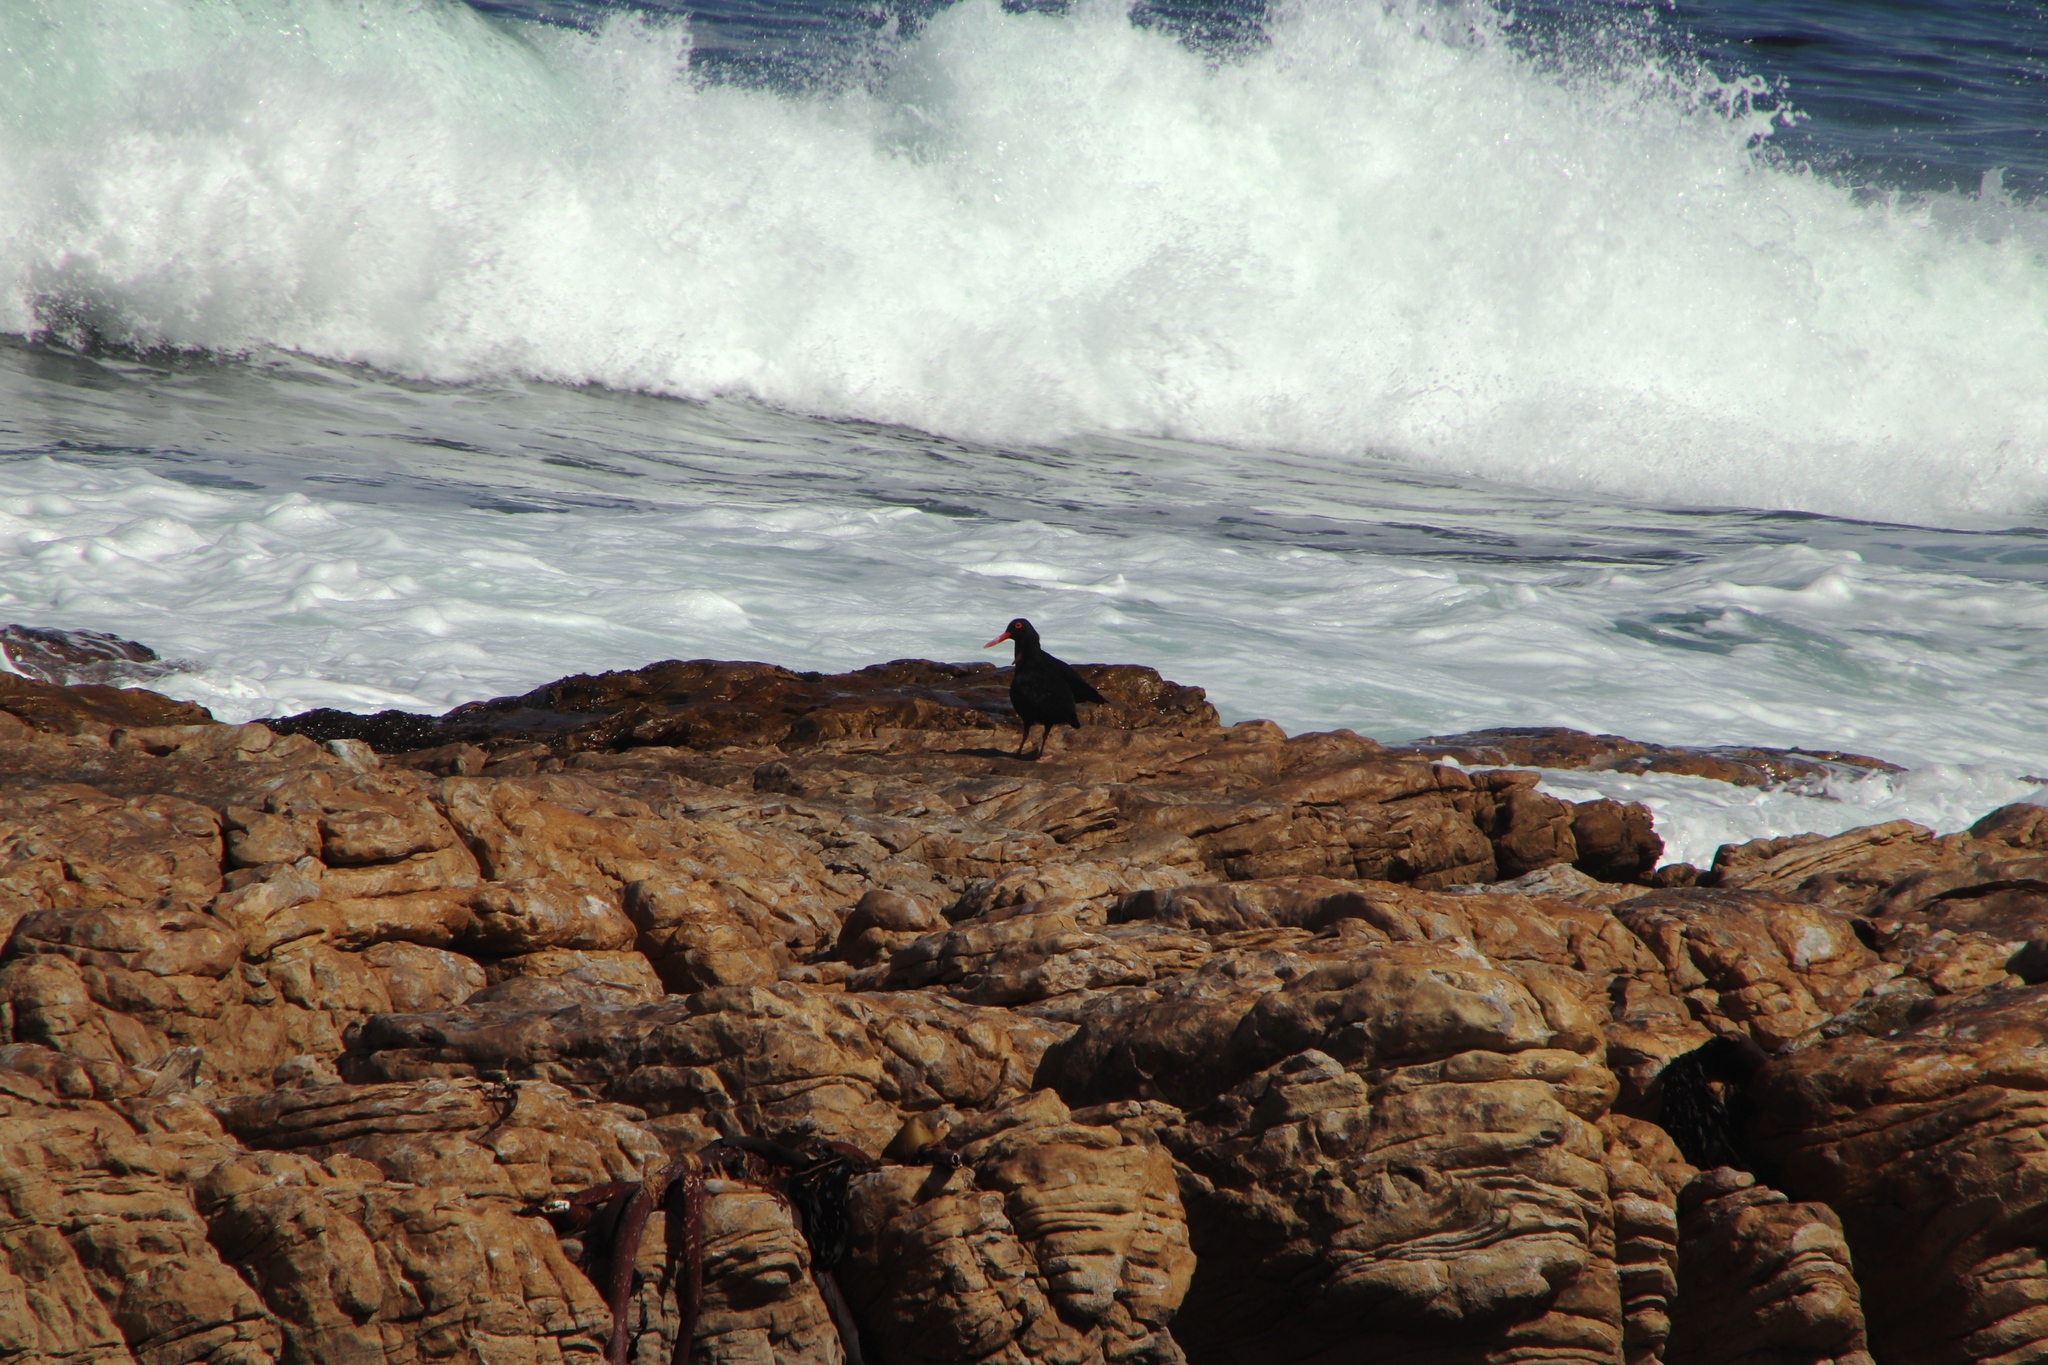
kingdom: Animalia
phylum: Chordata
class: Aves
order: Charadriiformes
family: Haematopodidae
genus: Haematopus
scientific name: Haematopus moquini
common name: African oystercatcher
